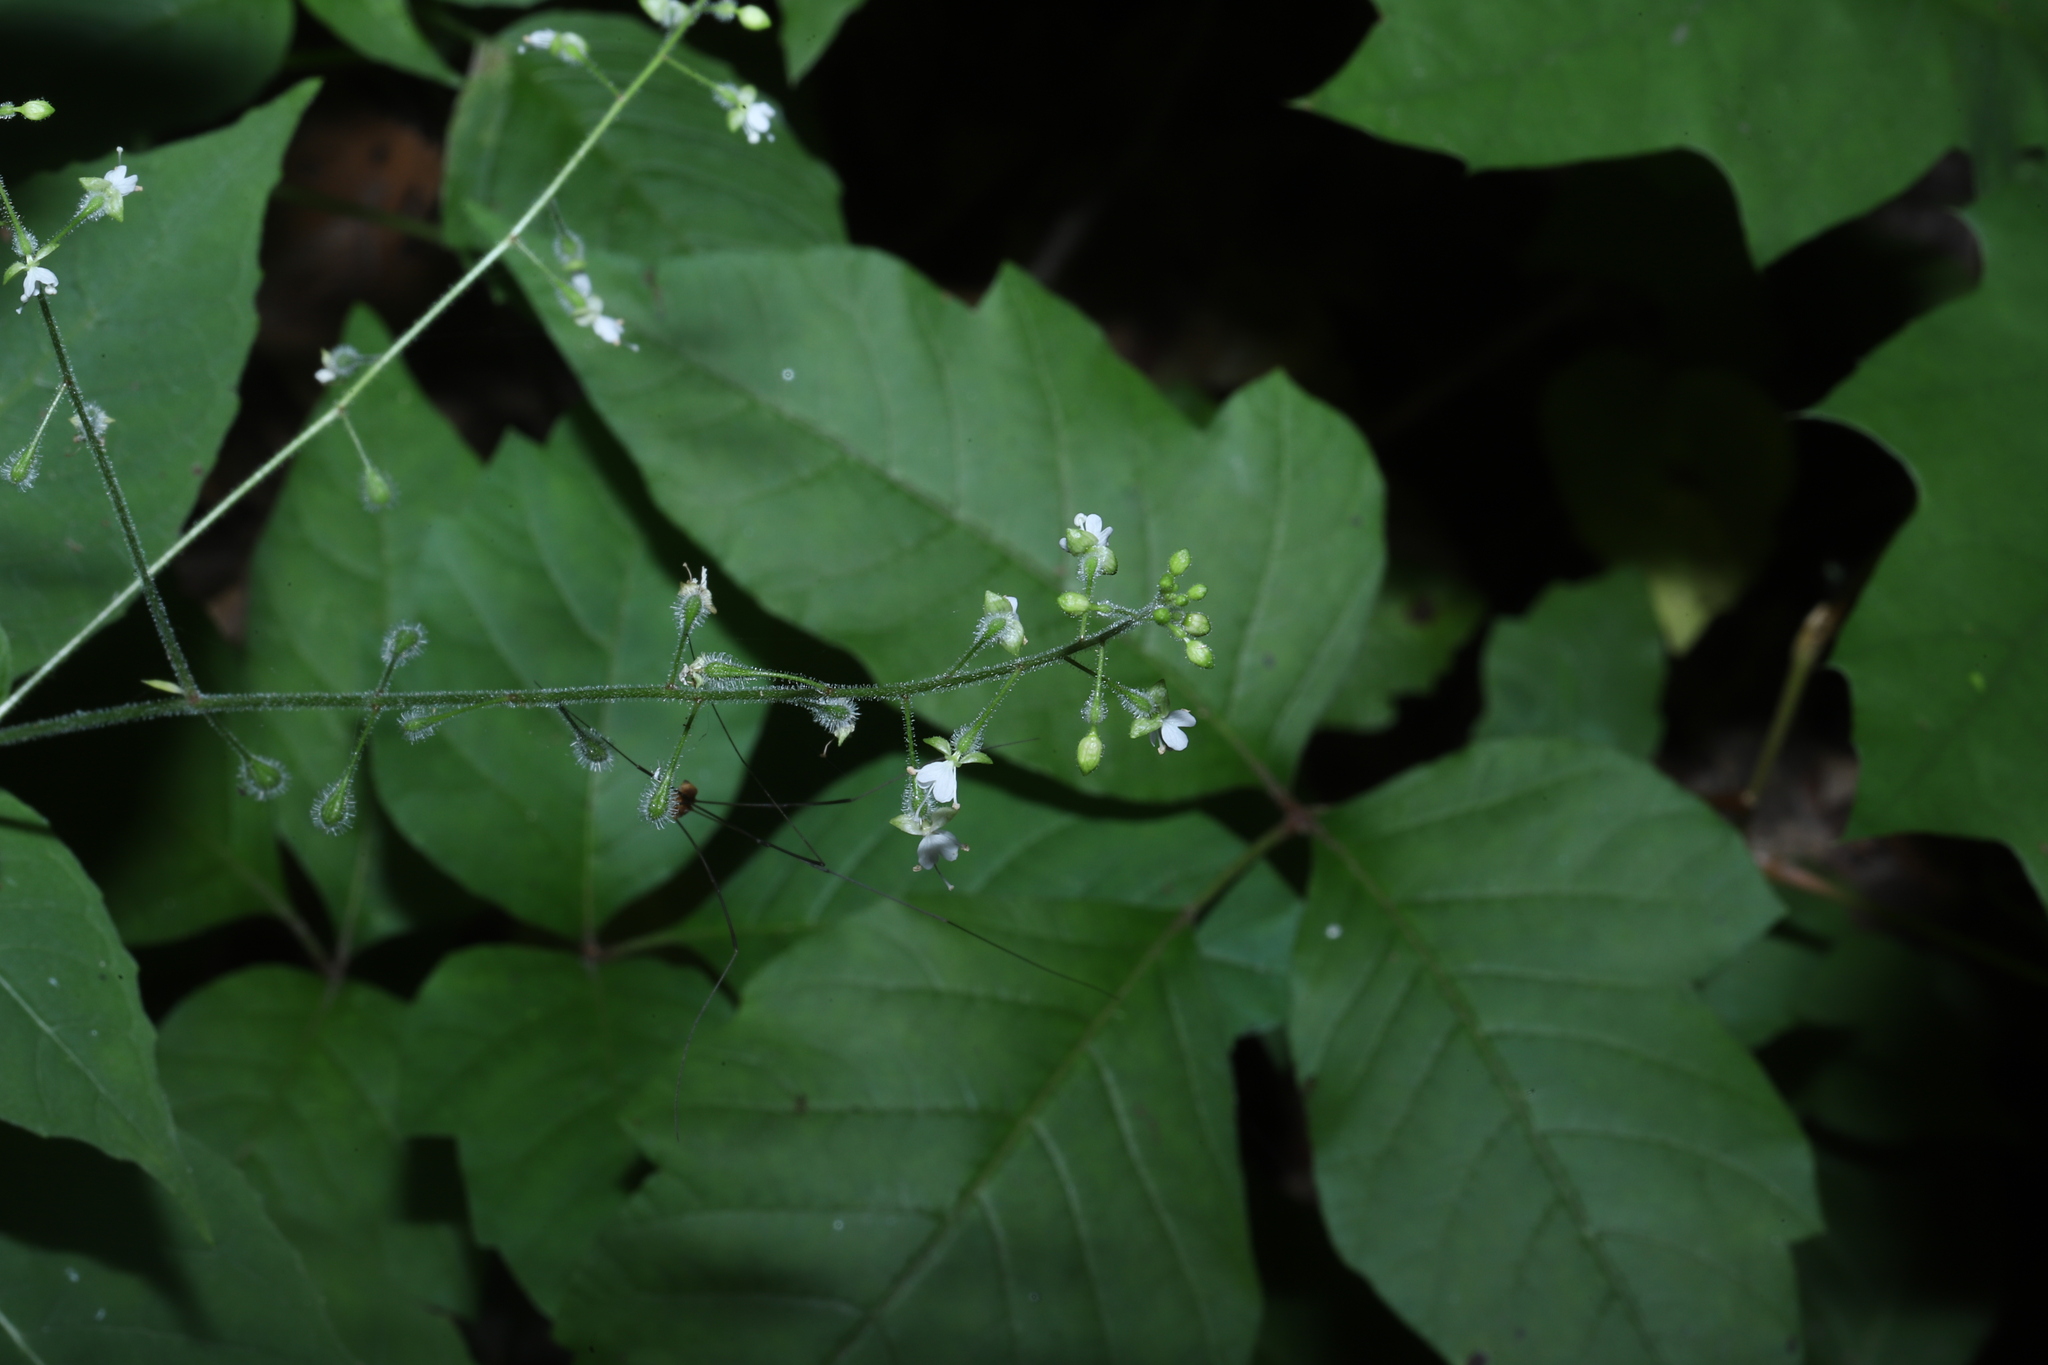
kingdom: Plantae
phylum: Tracheophyta
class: Magnoliopsida
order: Myrtales
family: Onagraceae
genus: Circaea
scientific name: Circaea canadensis
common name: Broad-leaved enchanter's nightshade
